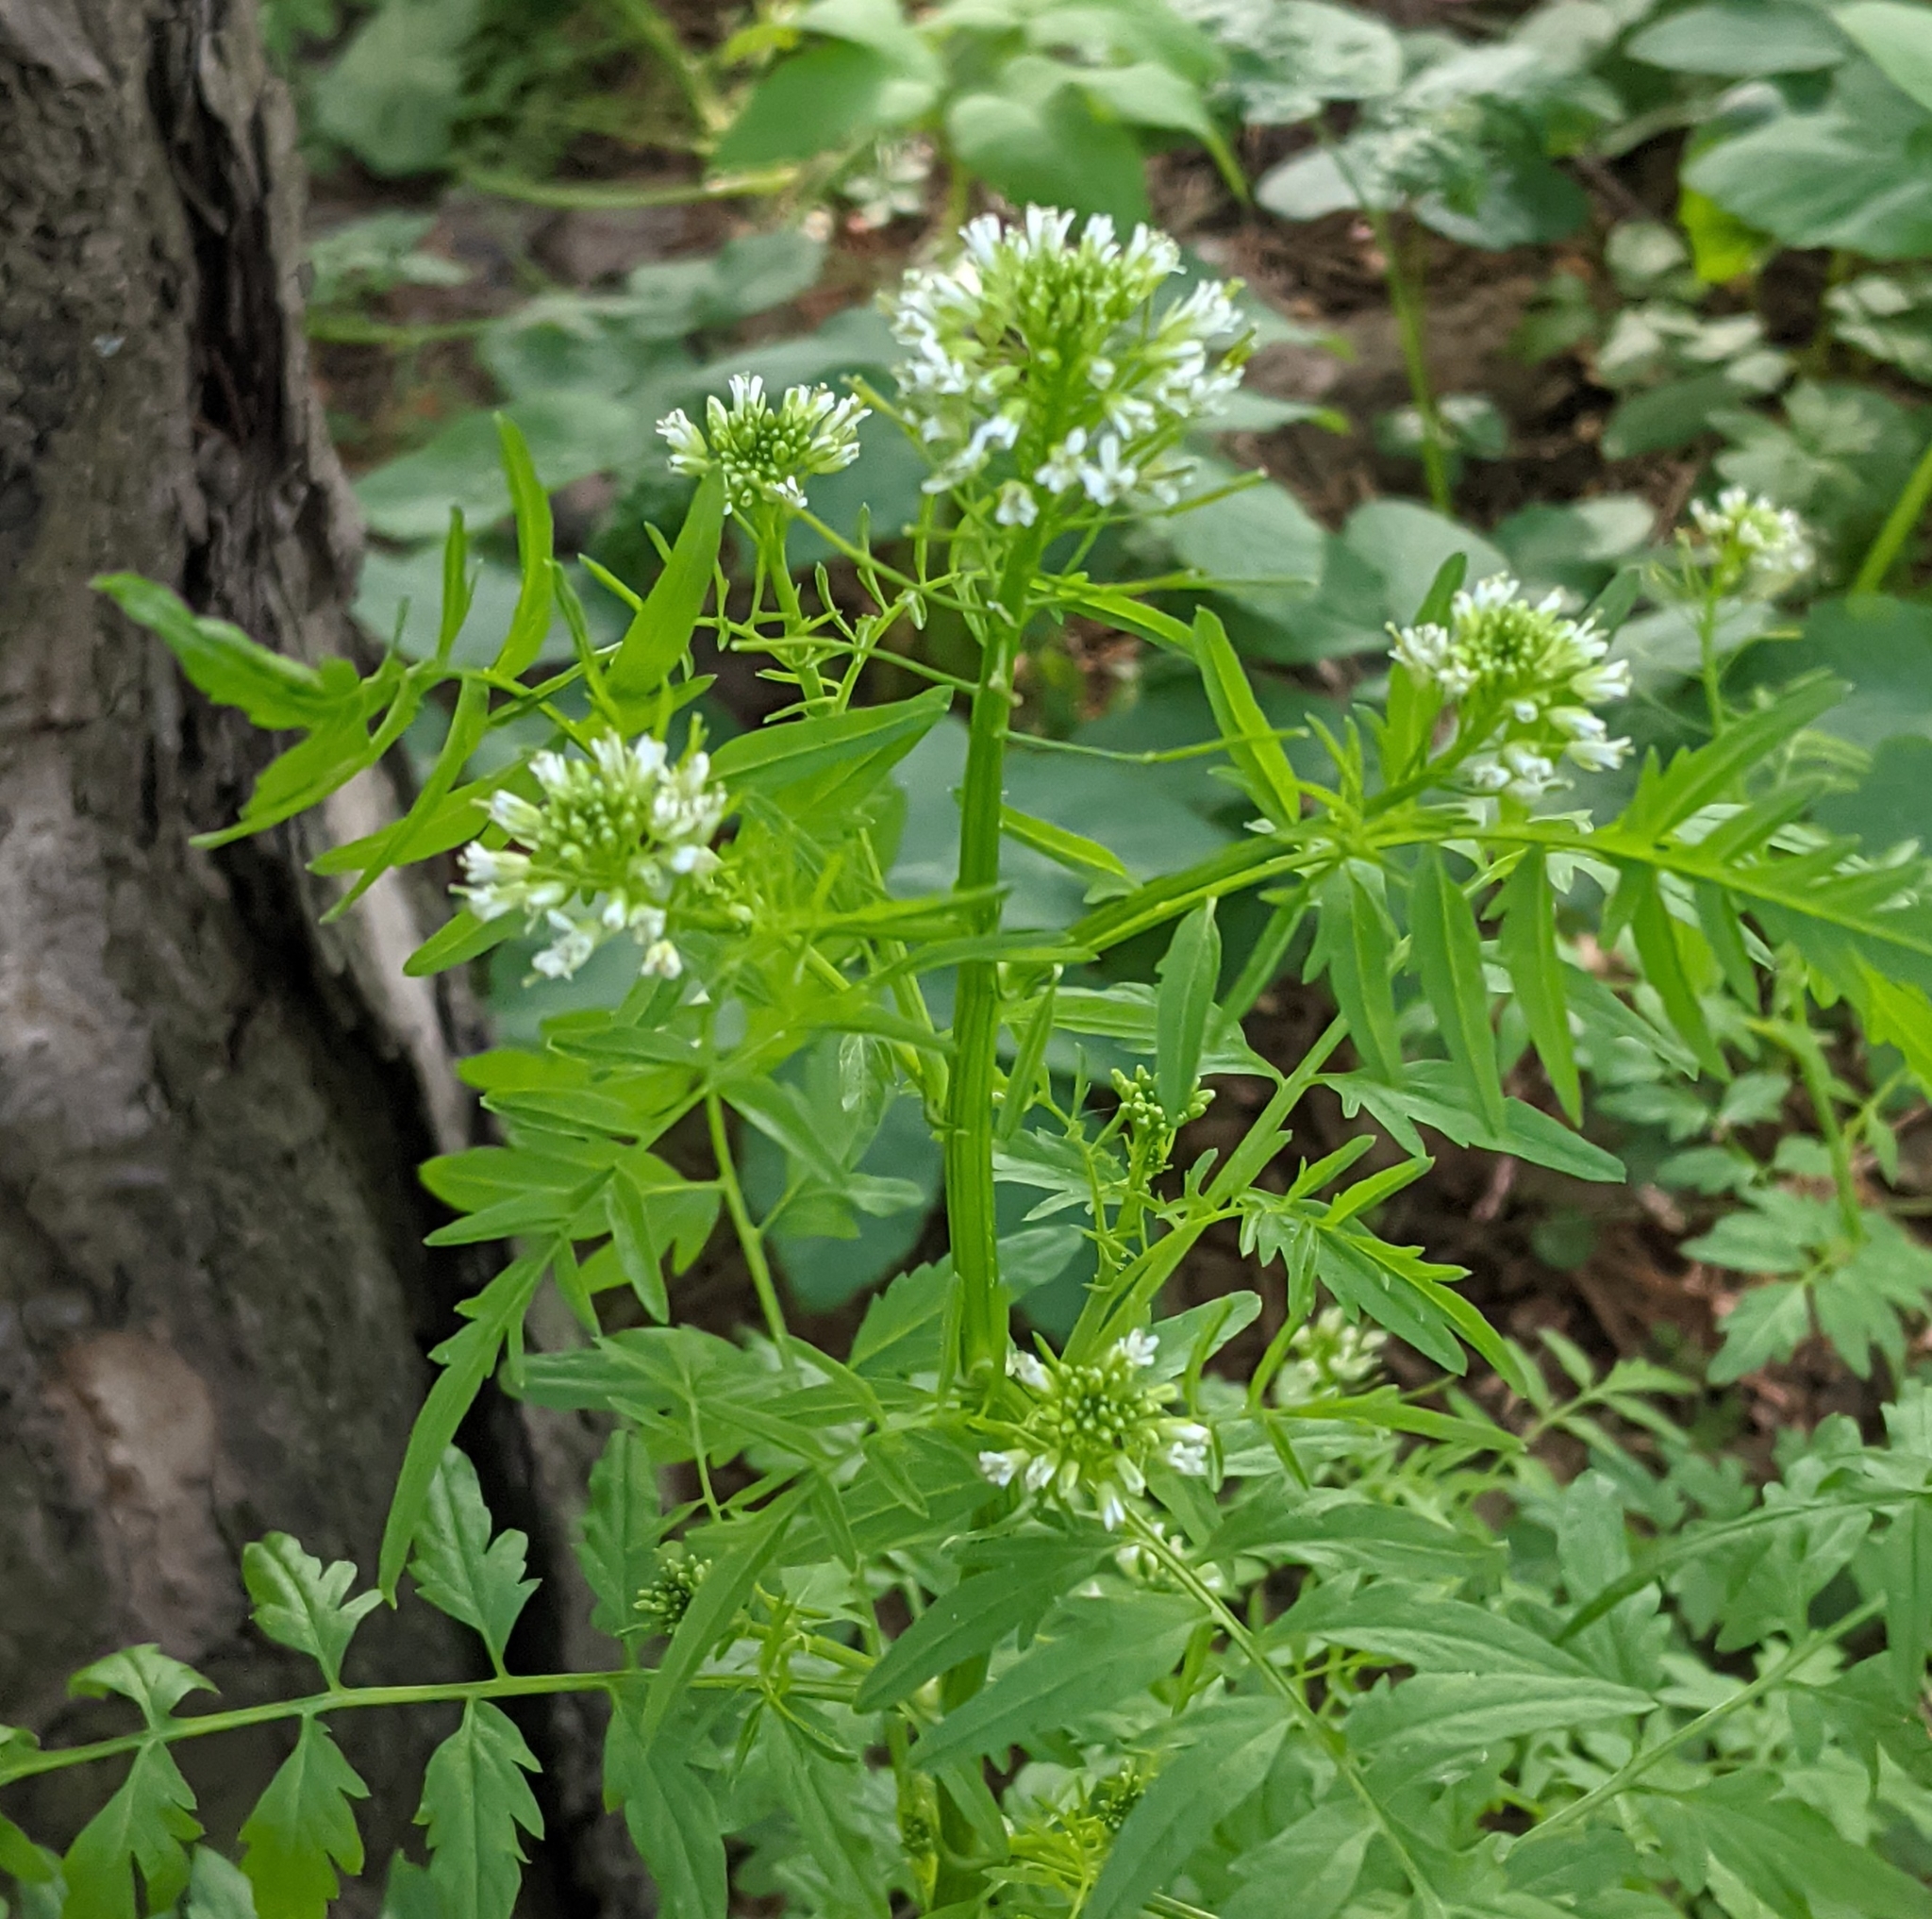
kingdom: Plantae
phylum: Tracheophyta
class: Magnoliopsida
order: Brassicales
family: Brassicaceae
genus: Cardamine
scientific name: Cardamine impatiens
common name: Narrow-leaved bitter-cress
